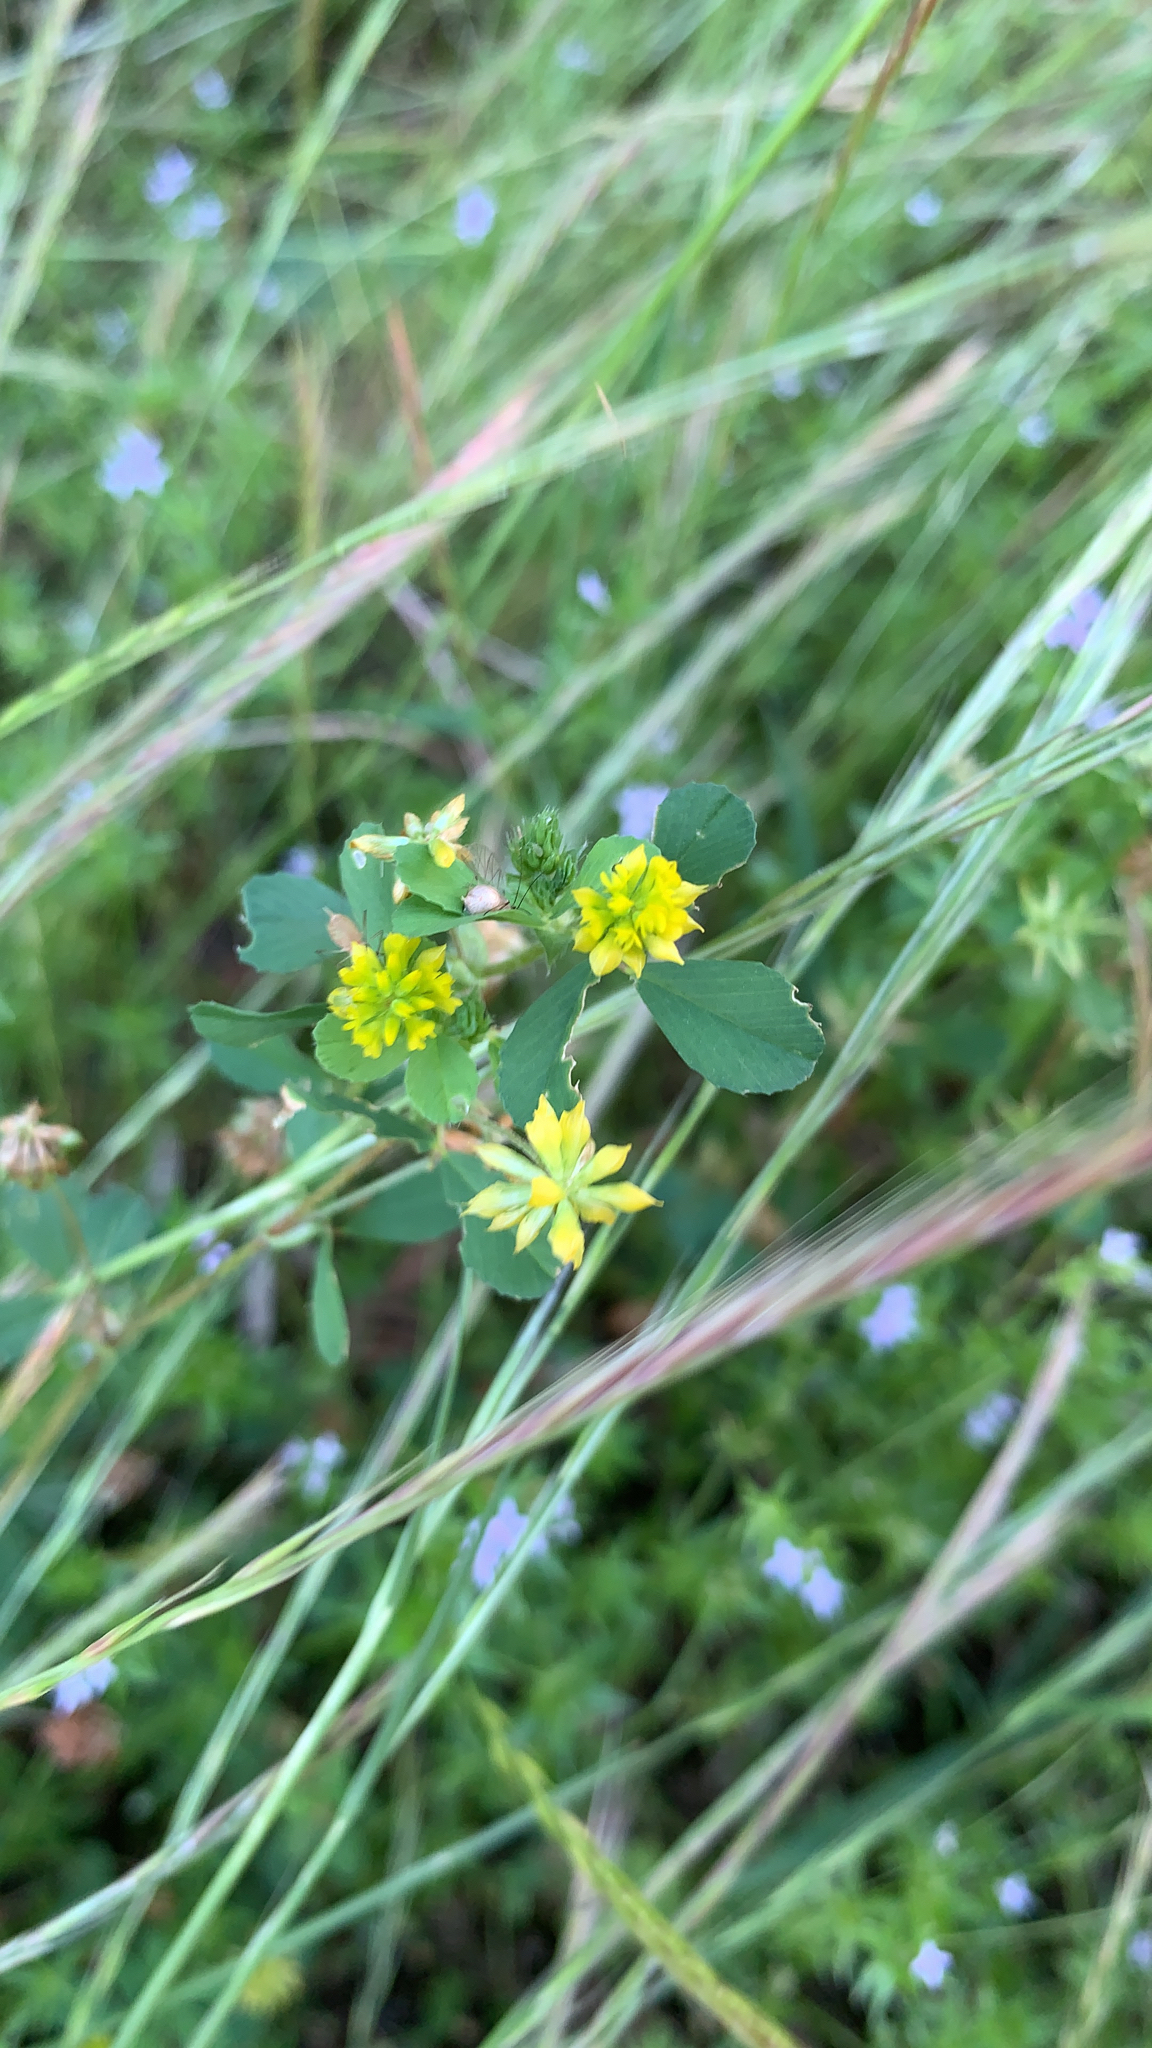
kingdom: Plantae
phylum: Tracheophyta
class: Magnoliopsida
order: Fabales
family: Fabaceae
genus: Trifolium
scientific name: Trifolium dubium
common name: Suckling clover
